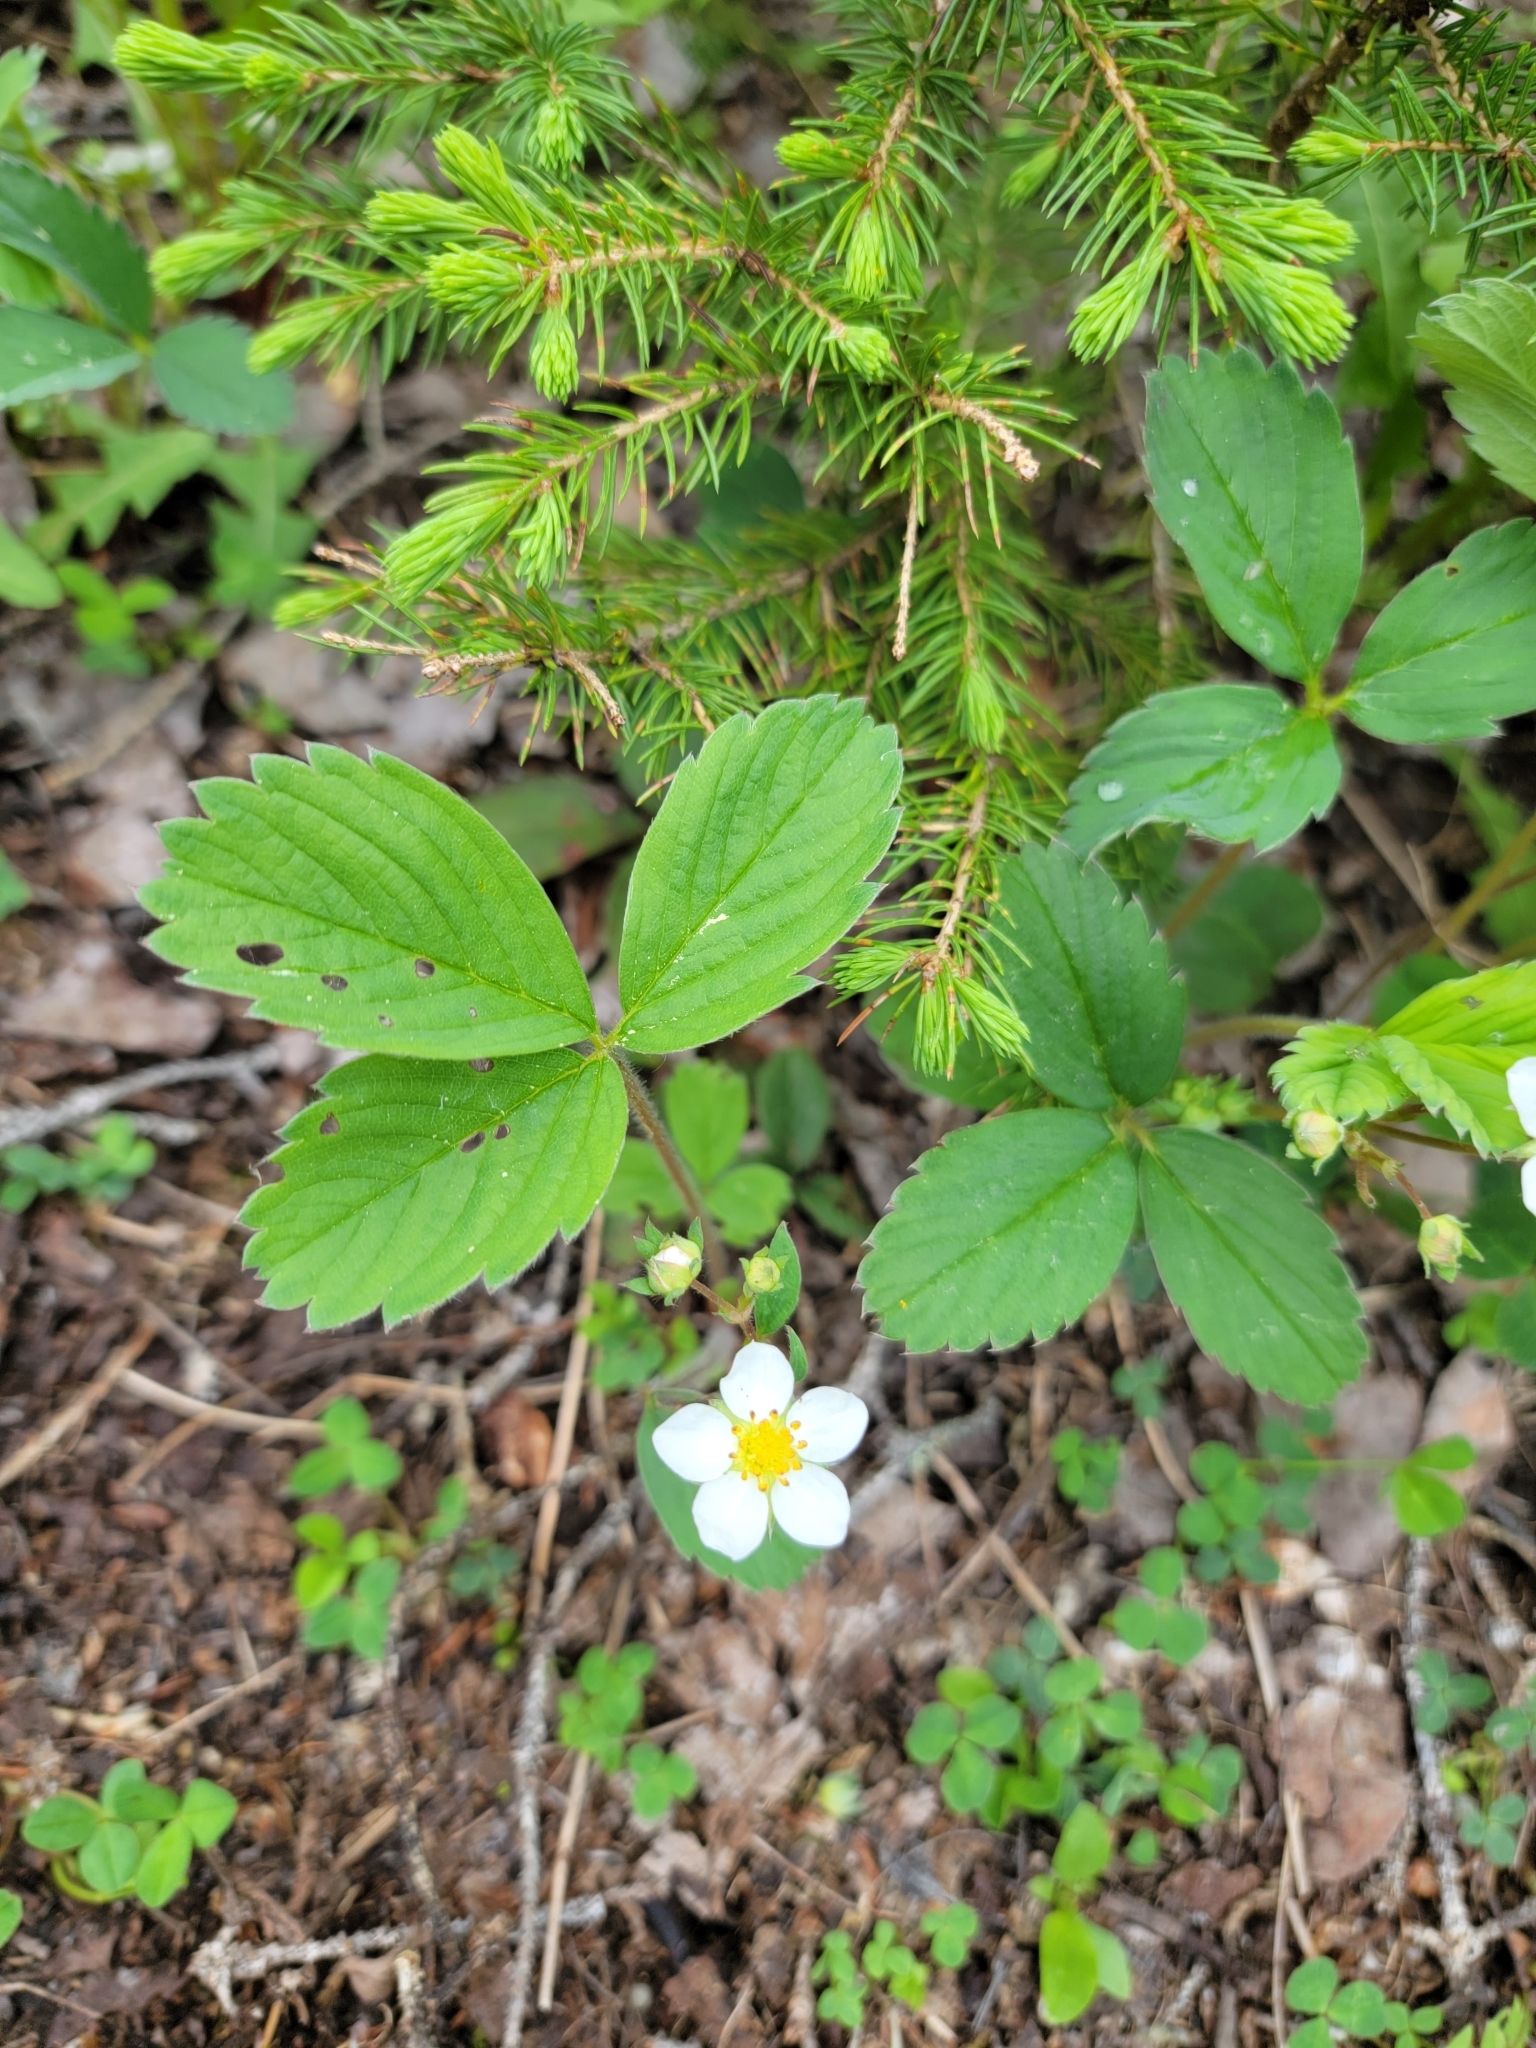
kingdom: Plantae
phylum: Tracheophyta
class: Magnoliopsida
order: Rosales
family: Rosaceae
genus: Fragaria
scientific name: Fragaria virginiana
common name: Thickleaved wild strawberry
